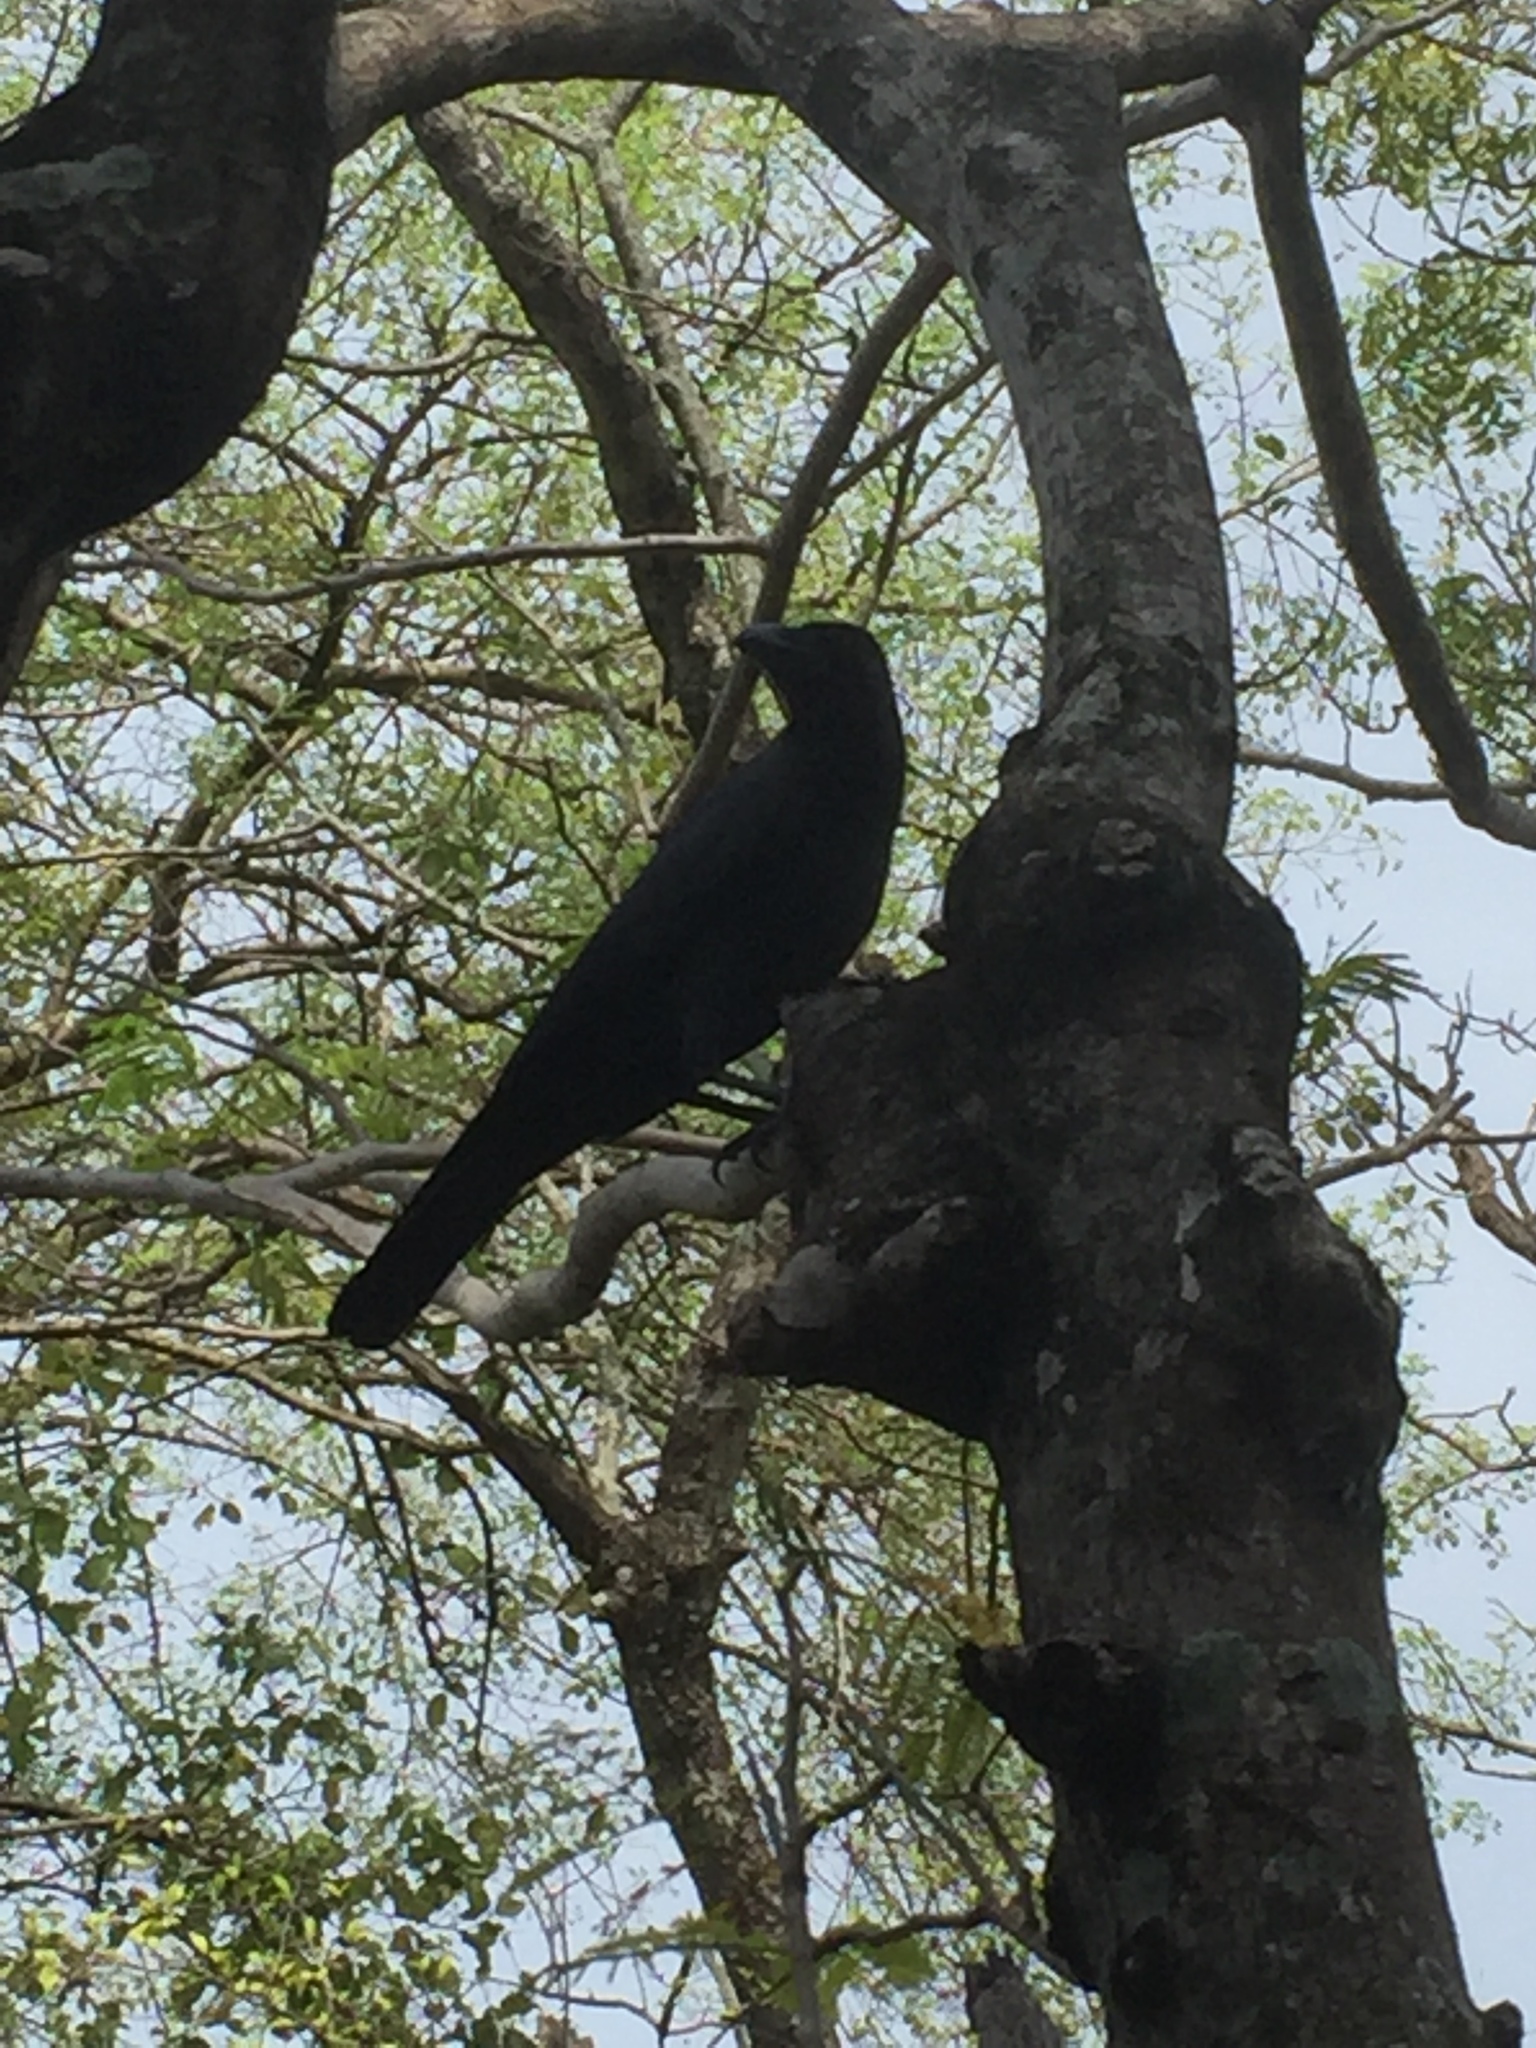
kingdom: Animalia
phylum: Chordata
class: Aves
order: Passeriformes
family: Corvidae
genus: Corvus
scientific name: Corvus macrorhynchos
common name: Large-billed crow
